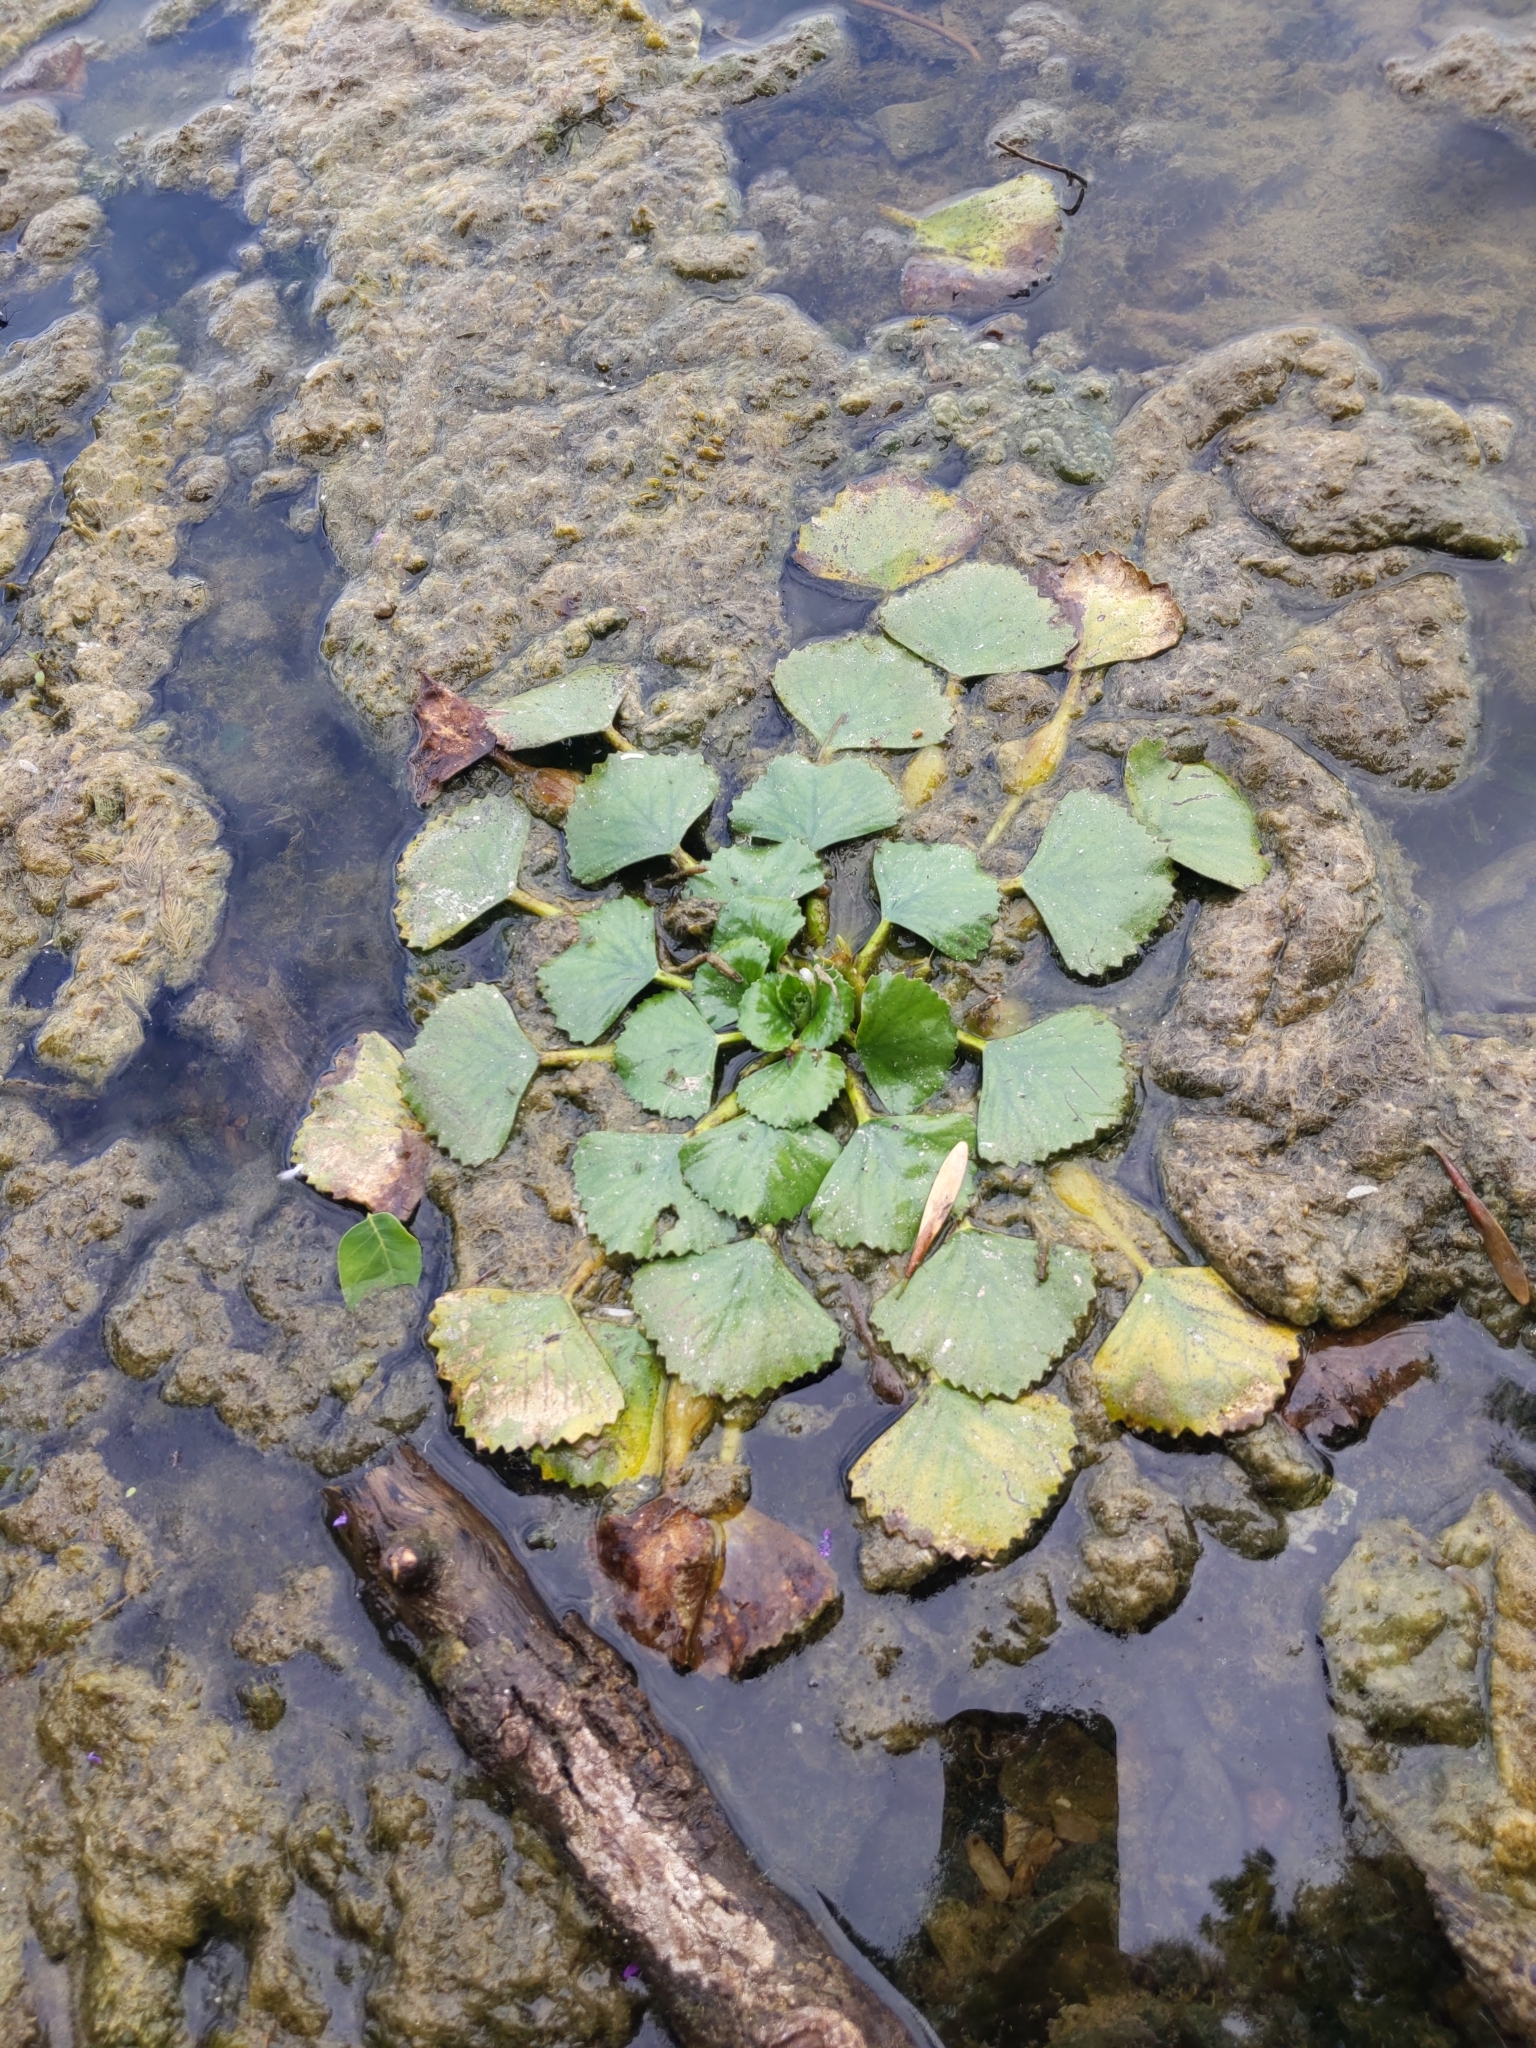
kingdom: Plantae
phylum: Tracheophyta
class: Magnoliopsida
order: Myrtales
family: Lythraceae
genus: Trapa
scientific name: Trapa natans
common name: Water chestnut
